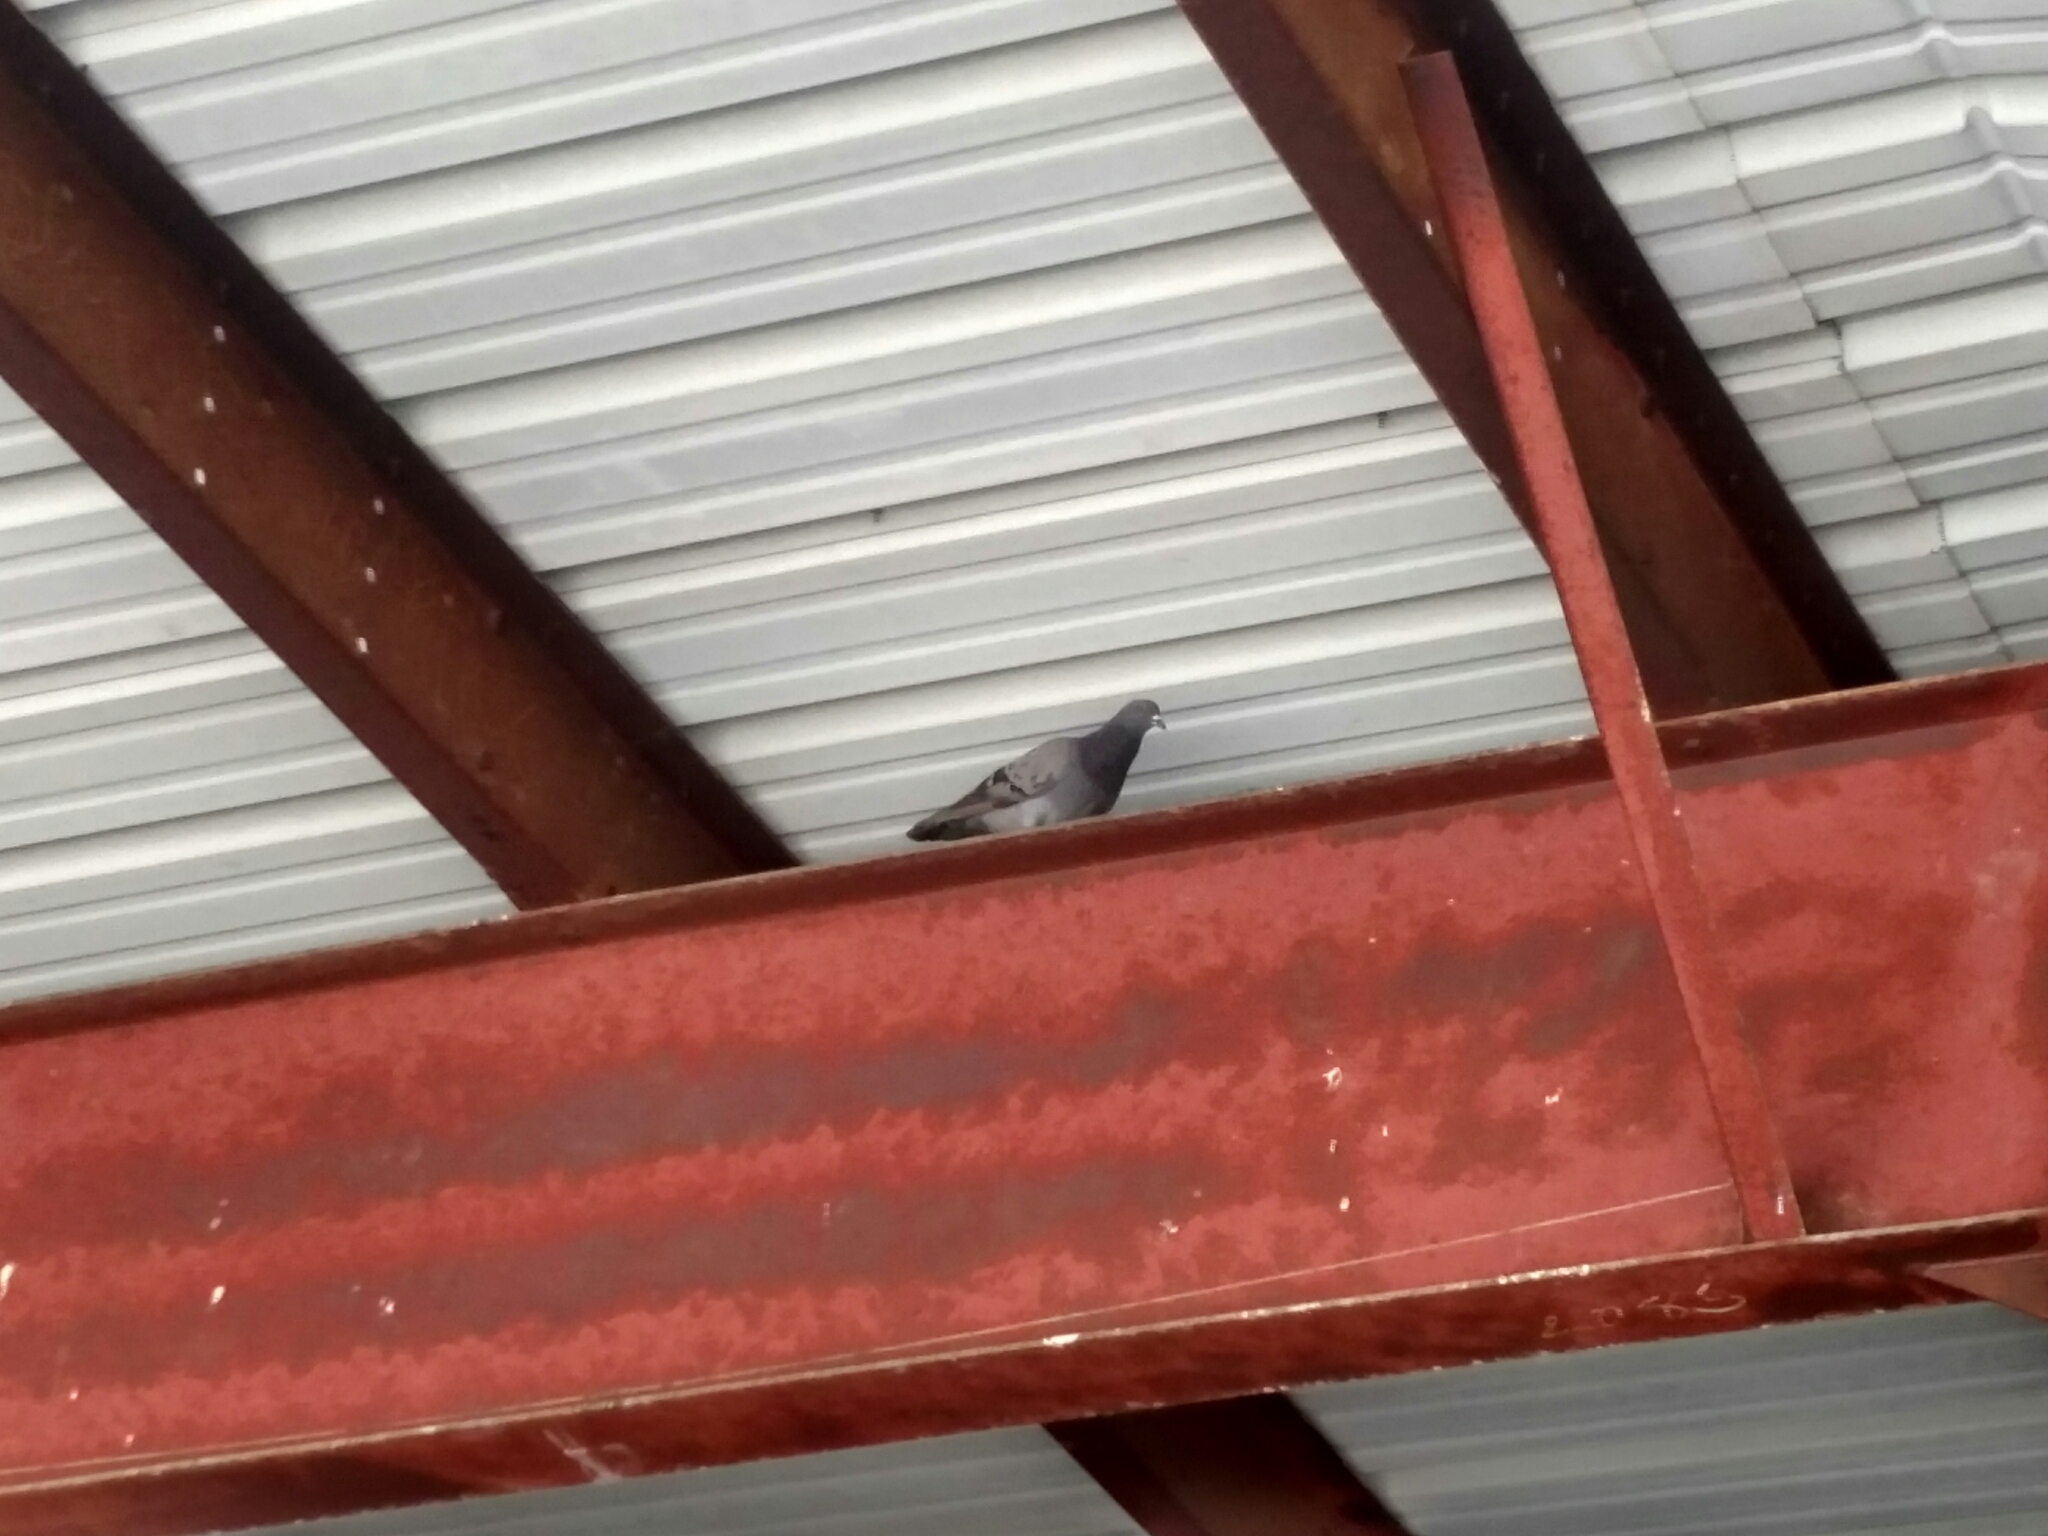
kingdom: Animalia
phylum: Chordata
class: Aves
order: Columbiformes
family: Columbidae
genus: Columba
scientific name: Columba livia
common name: Rock pigeon
